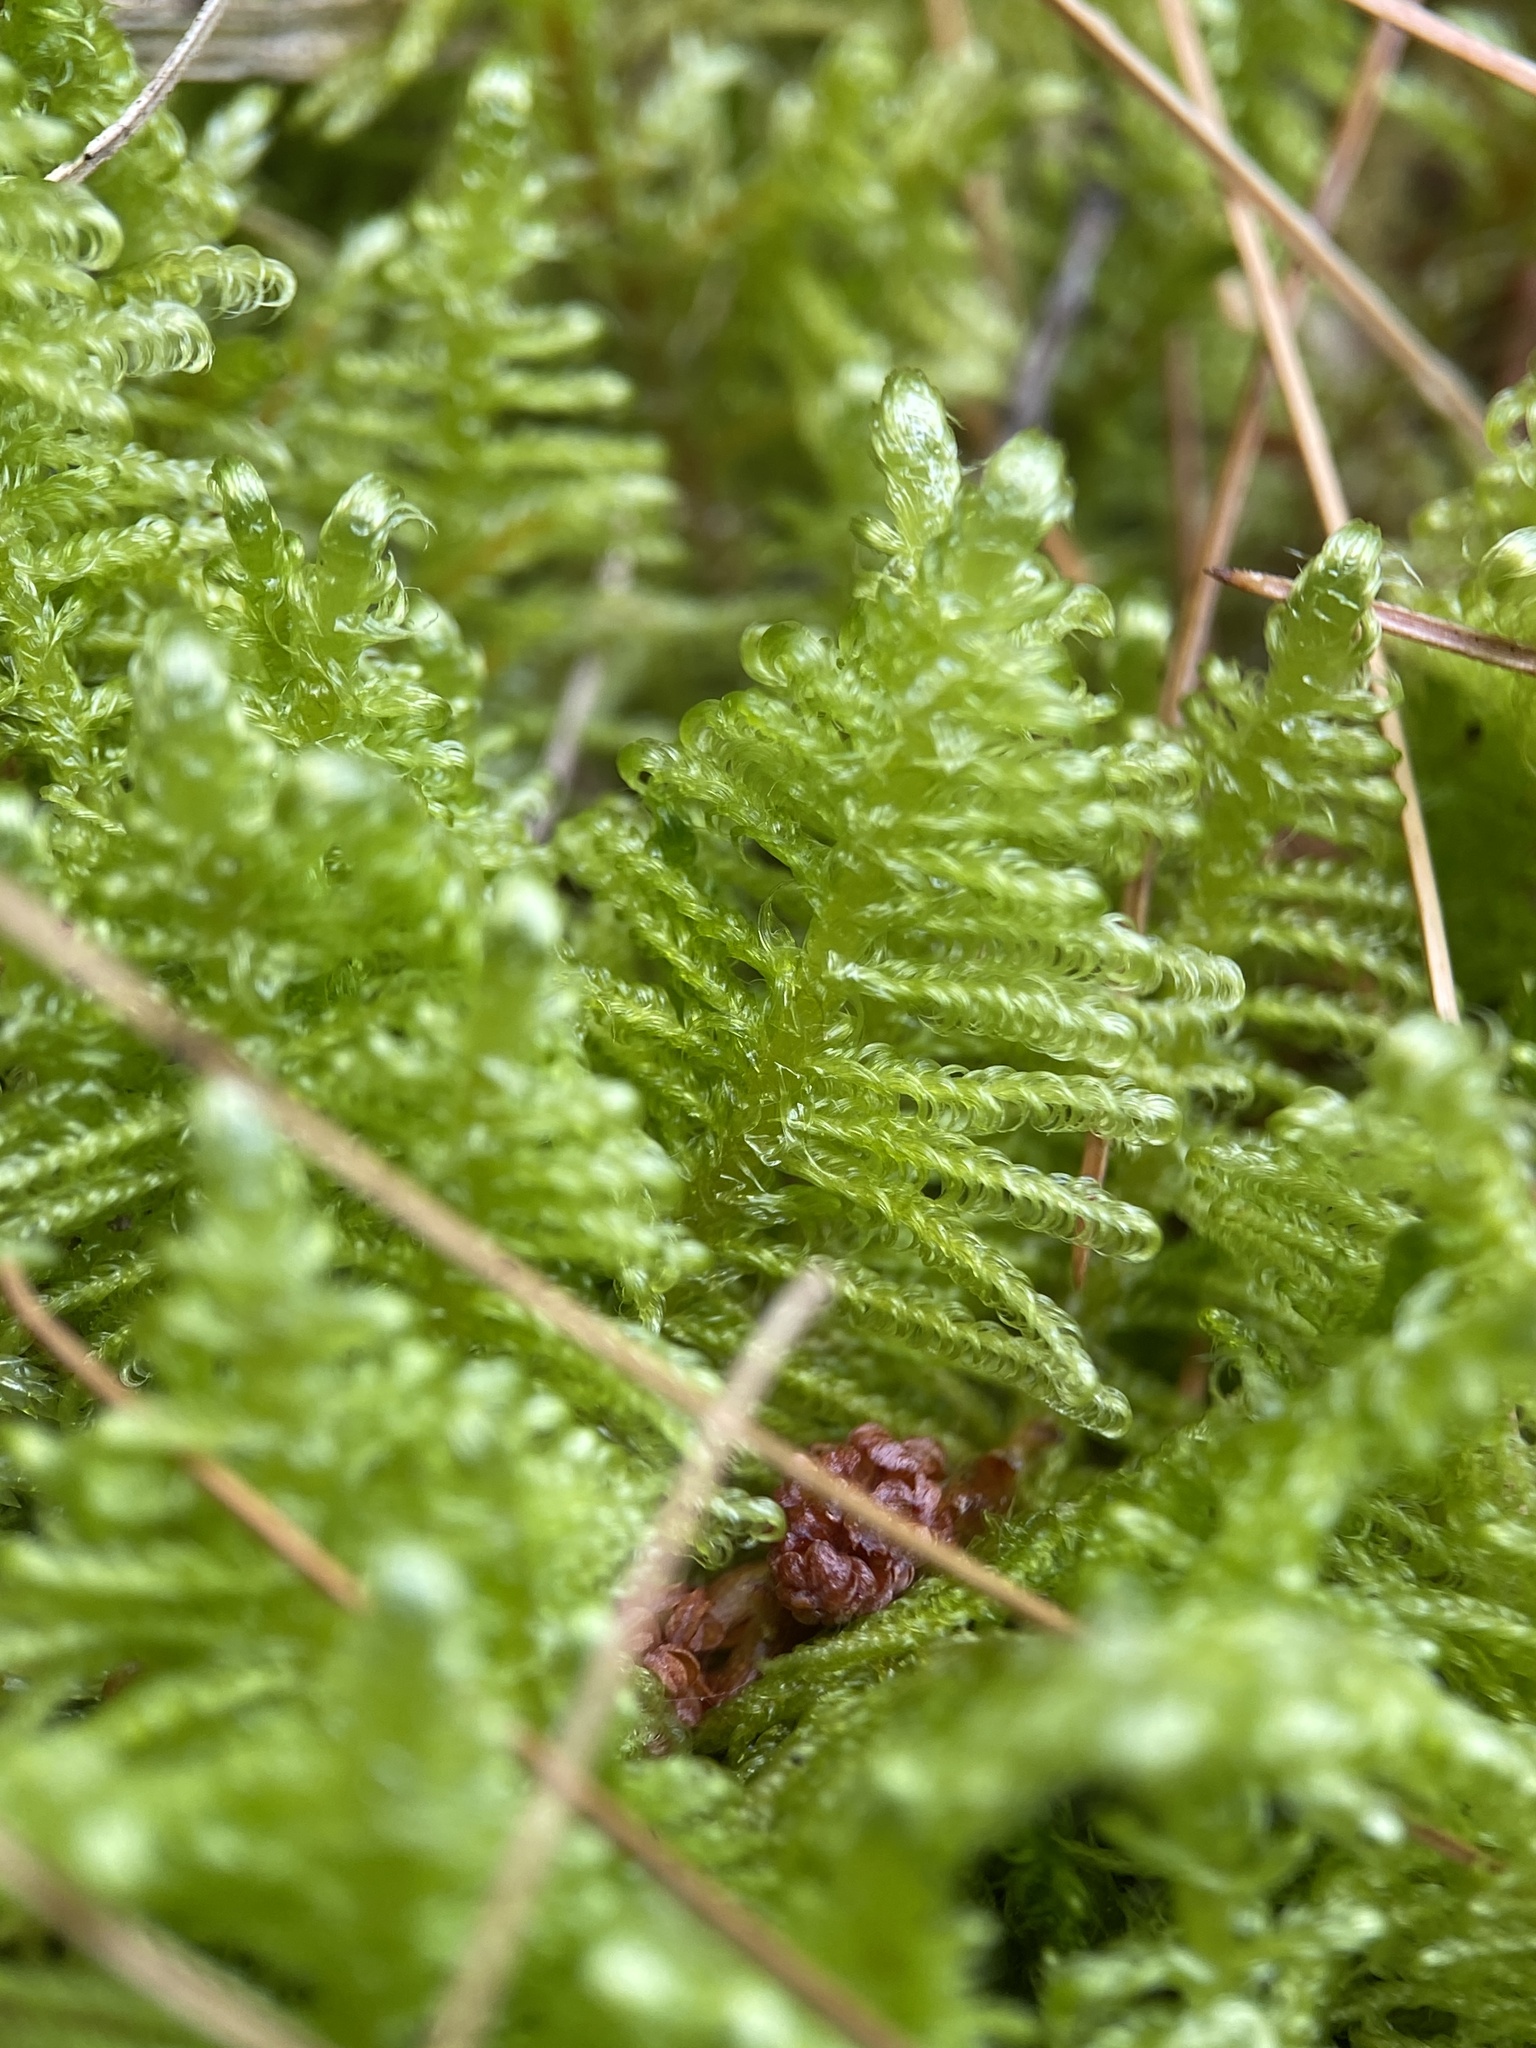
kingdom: Plantae
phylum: Bryophyta
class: Bryopsida
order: Hypnales
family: Pylaisiaceae
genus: Ptilium
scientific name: Ptilium crista-castrensis
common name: Knight's plume moss
